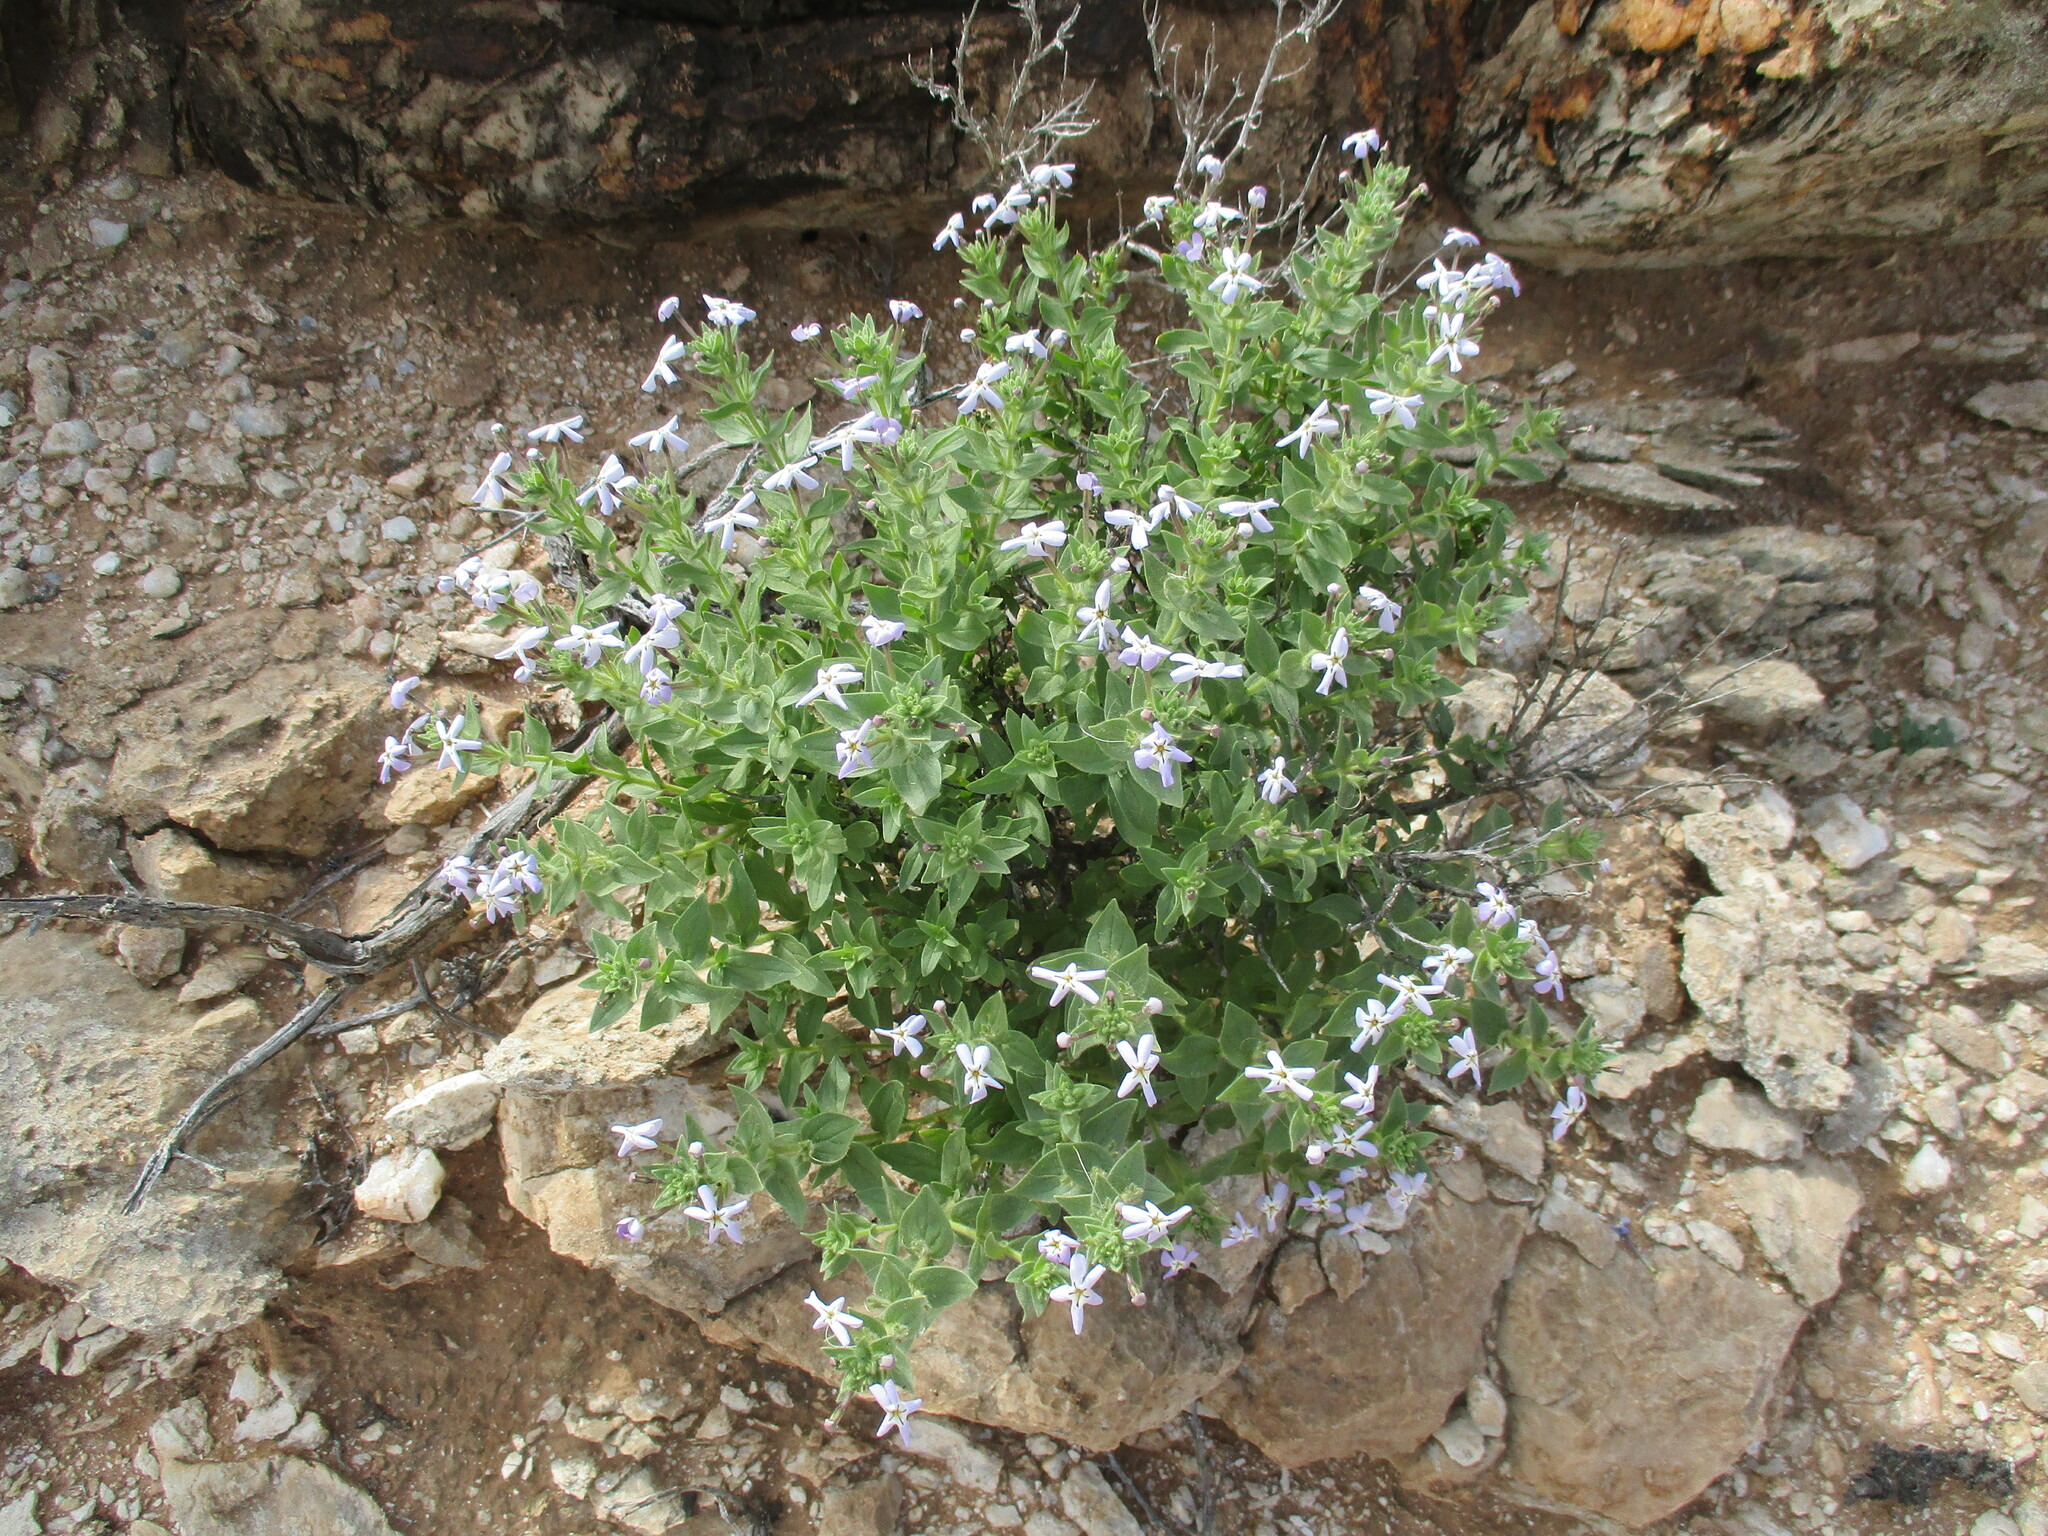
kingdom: Plantae
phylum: Tracheophyta
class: Magnoliopsida
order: Lamiales
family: Scrophulariaceae
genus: Jamesbrittenia
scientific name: Jamesbrittenia maxii
